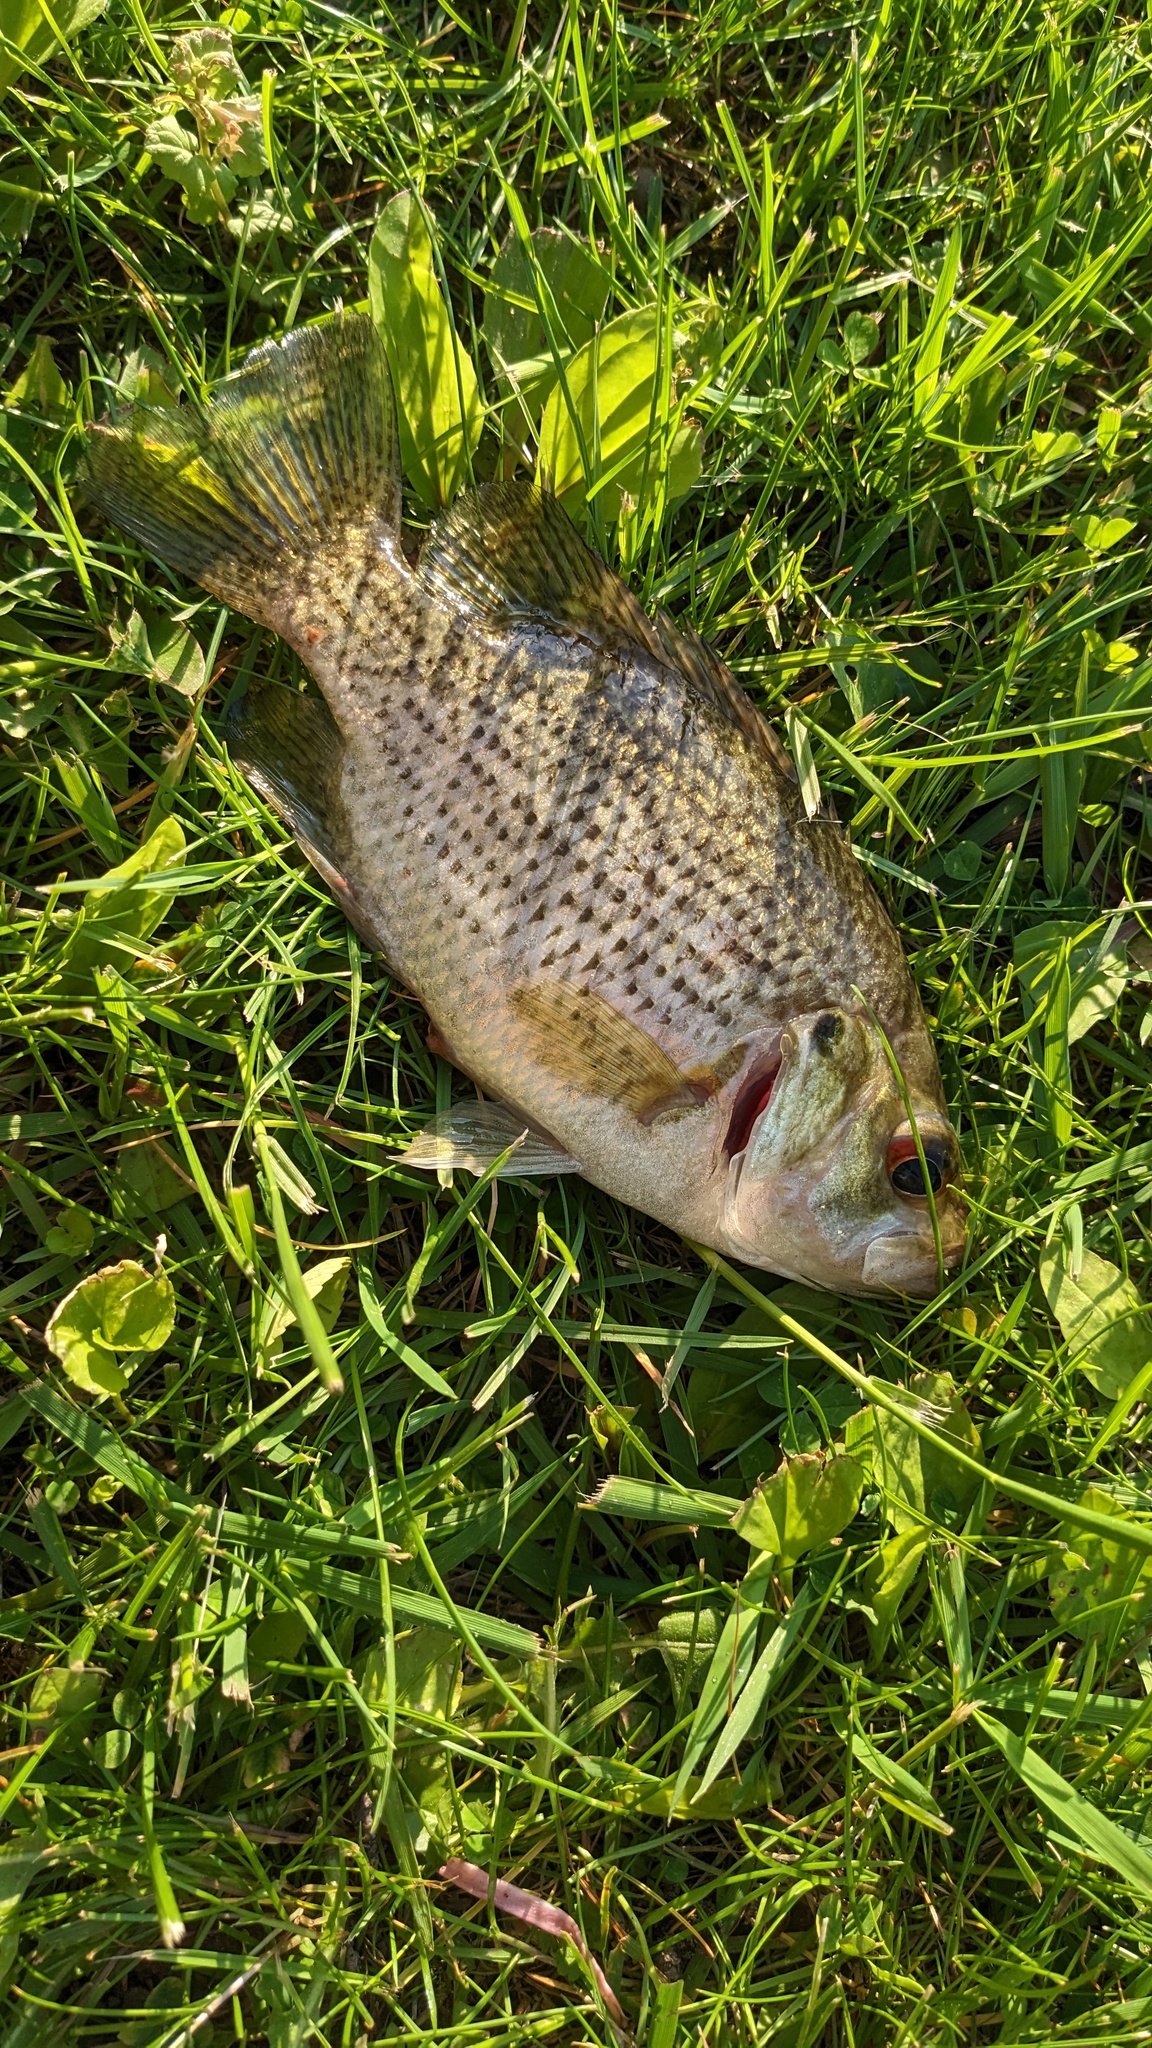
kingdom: Animalia
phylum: Chordata
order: Perciformes
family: Centrarchidae
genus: Ambloplites
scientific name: Ambloplites rupestris
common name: Rock bass
